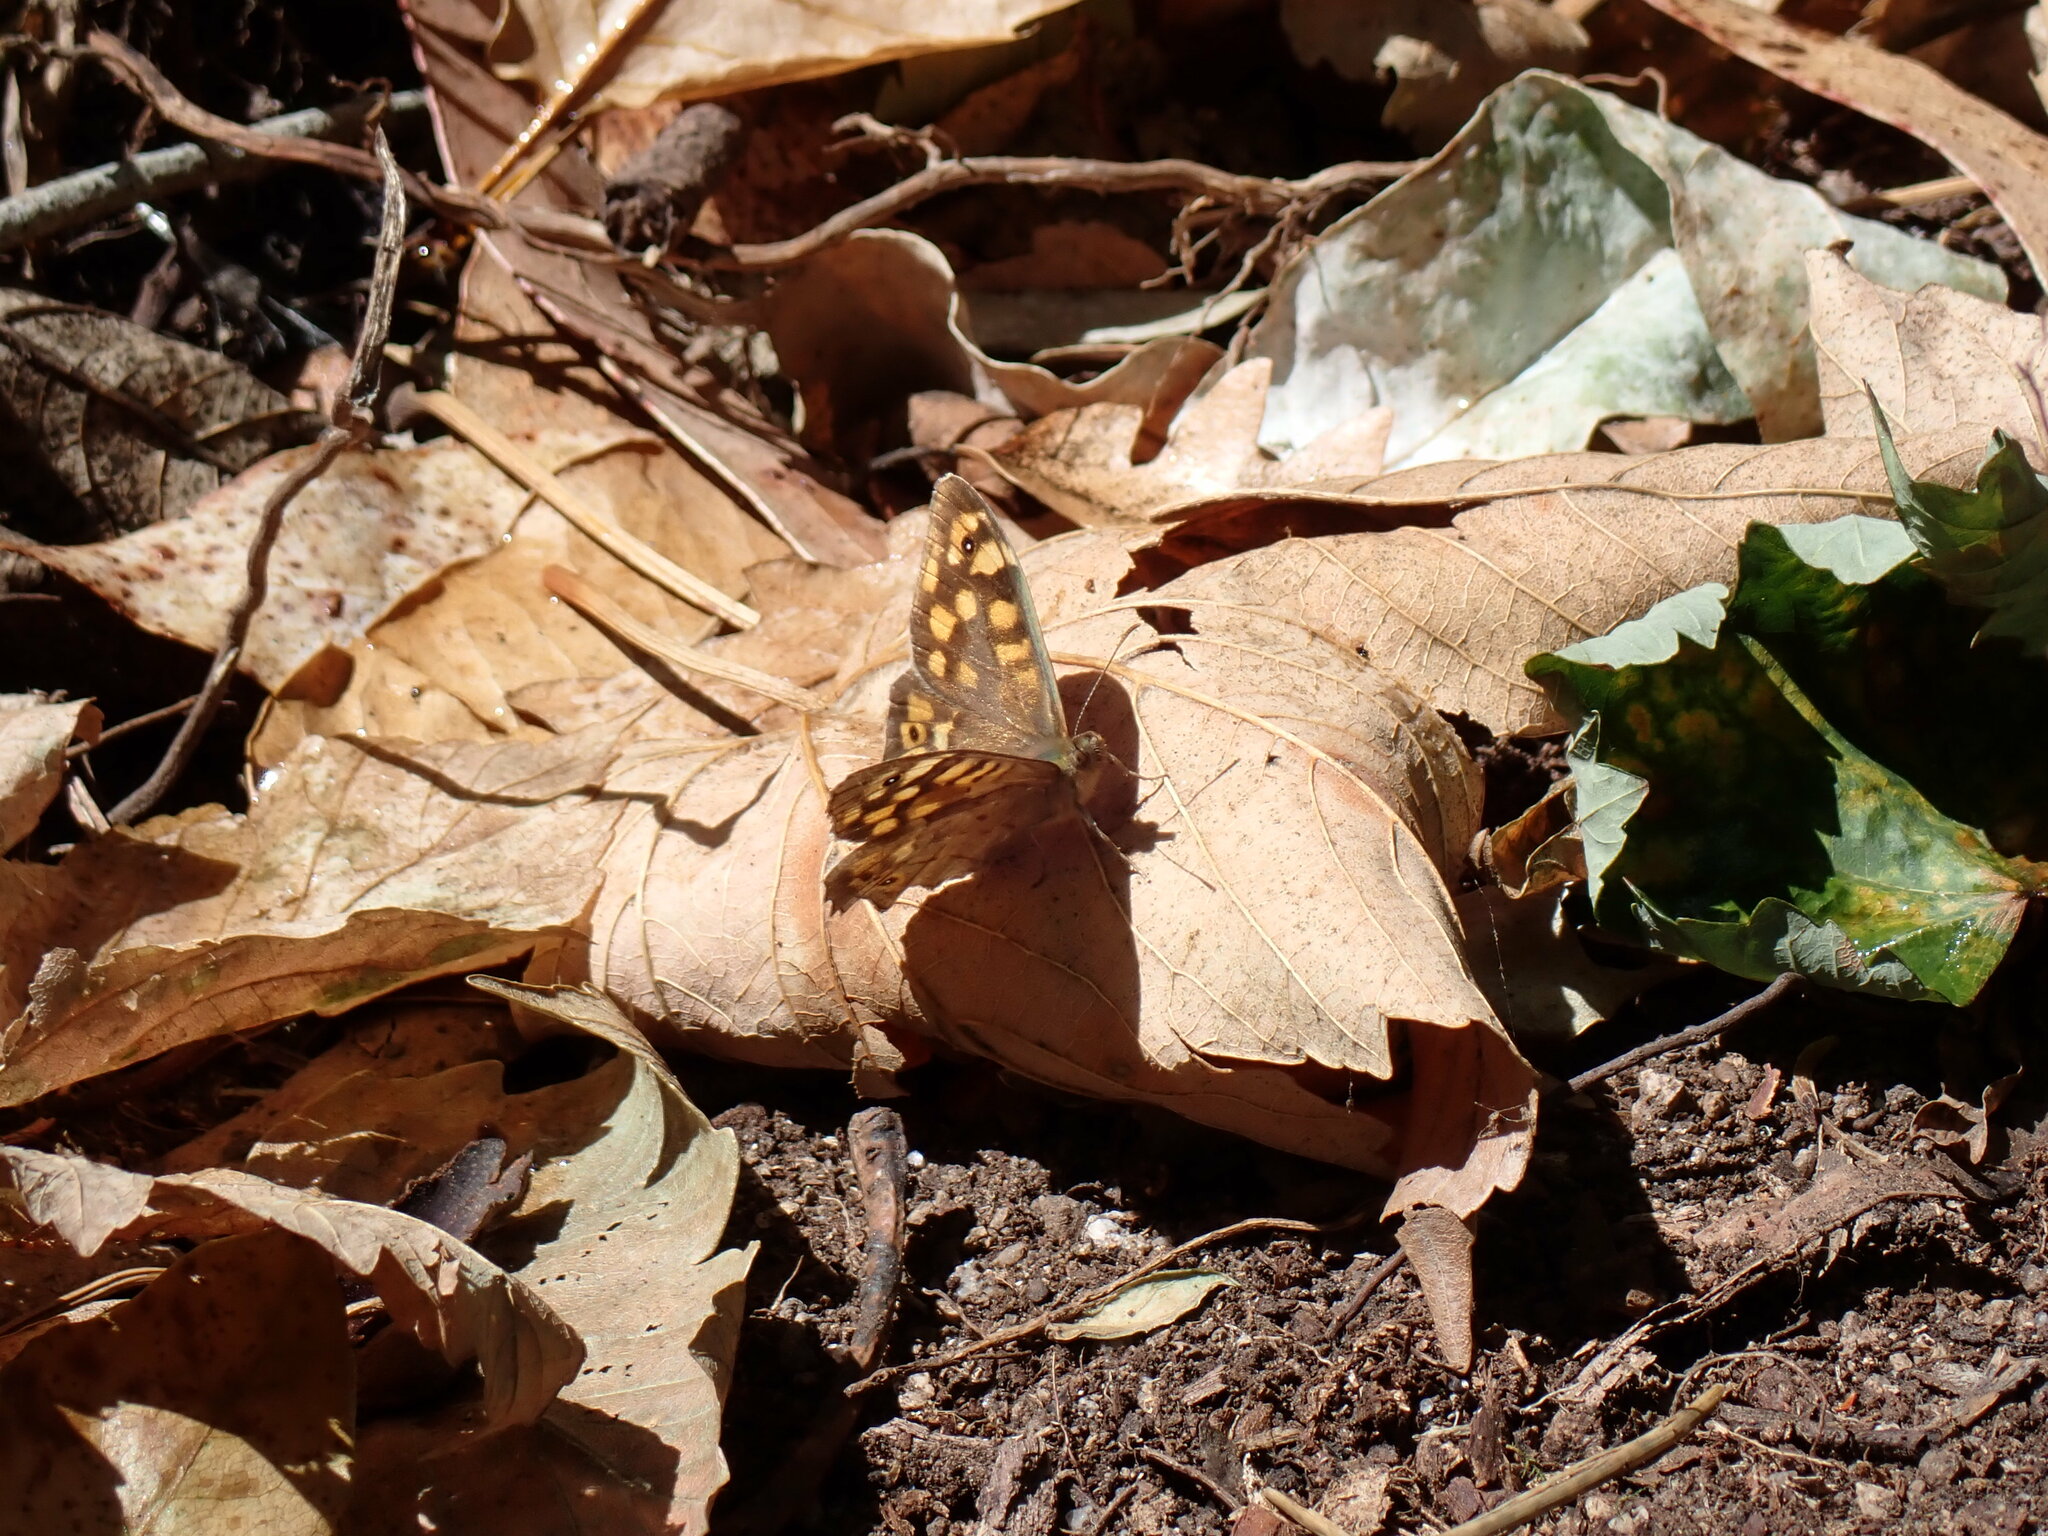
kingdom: Animalia
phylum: Arthropoda
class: Insecta
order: Lepidoptera
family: Nymphalidae
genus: Pararge
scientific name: Pararge aegeria
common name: Speckled wood
